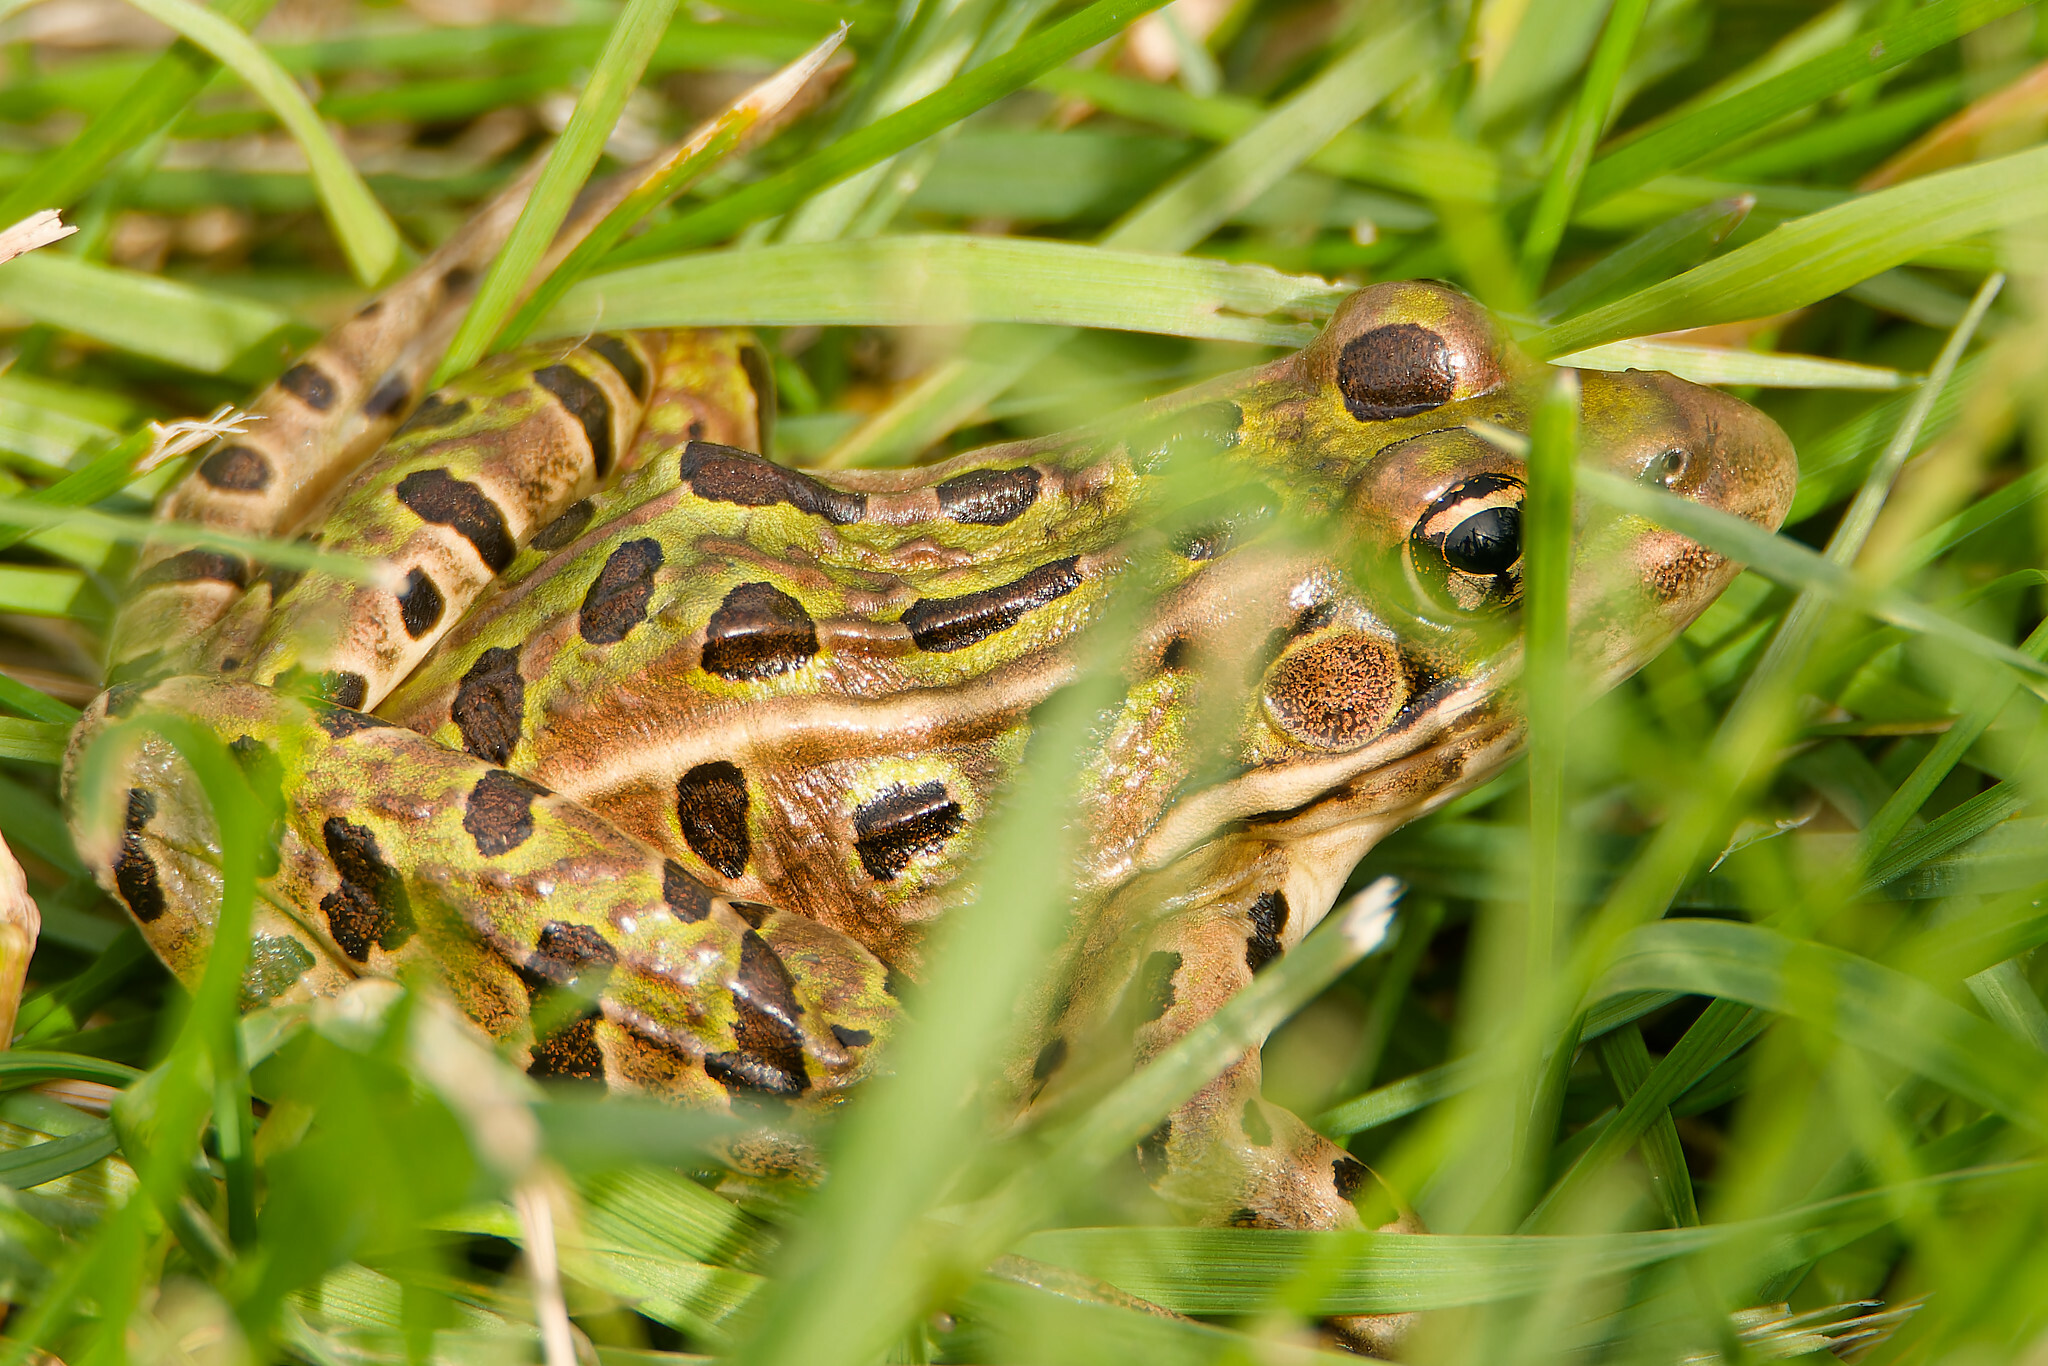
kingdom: Animalia
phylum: Chordata
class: Amphibia
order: Anura
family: Ranidae
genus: Lithobates
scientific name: Lithobates pipiens
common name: Northern leopard frog
